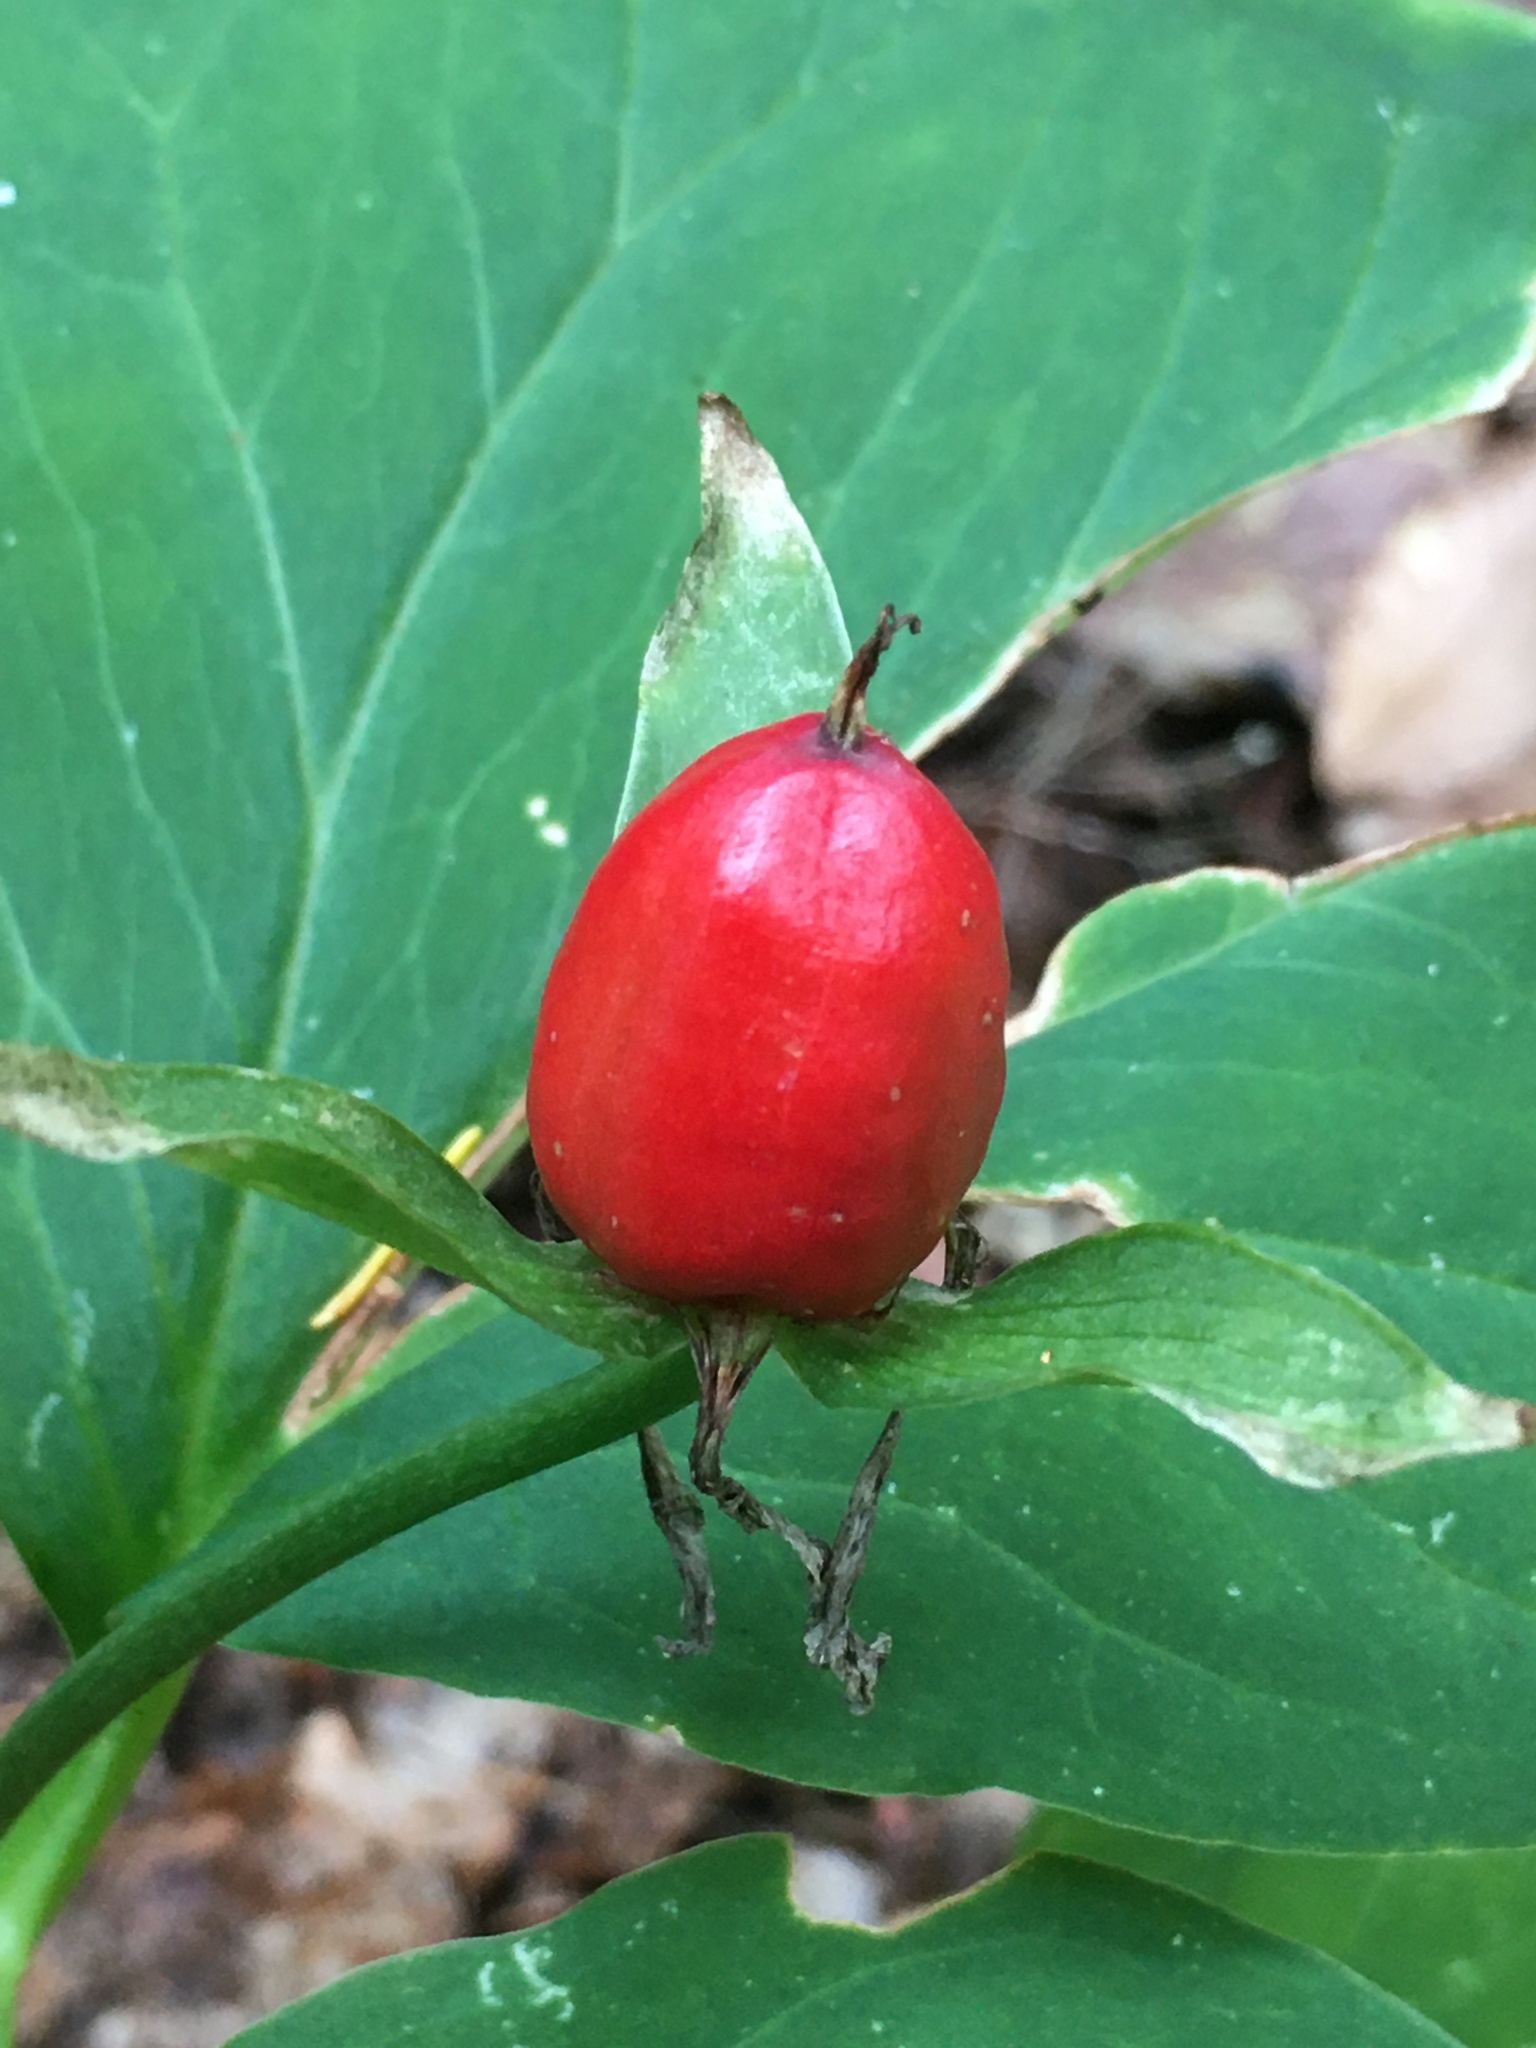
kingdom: Plantae
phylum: Tracheophyta
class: Liliopsida
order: Liliales
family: Melanthiaceae
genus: Trillium
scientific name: Trillium undulatum
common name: Paint trillium
